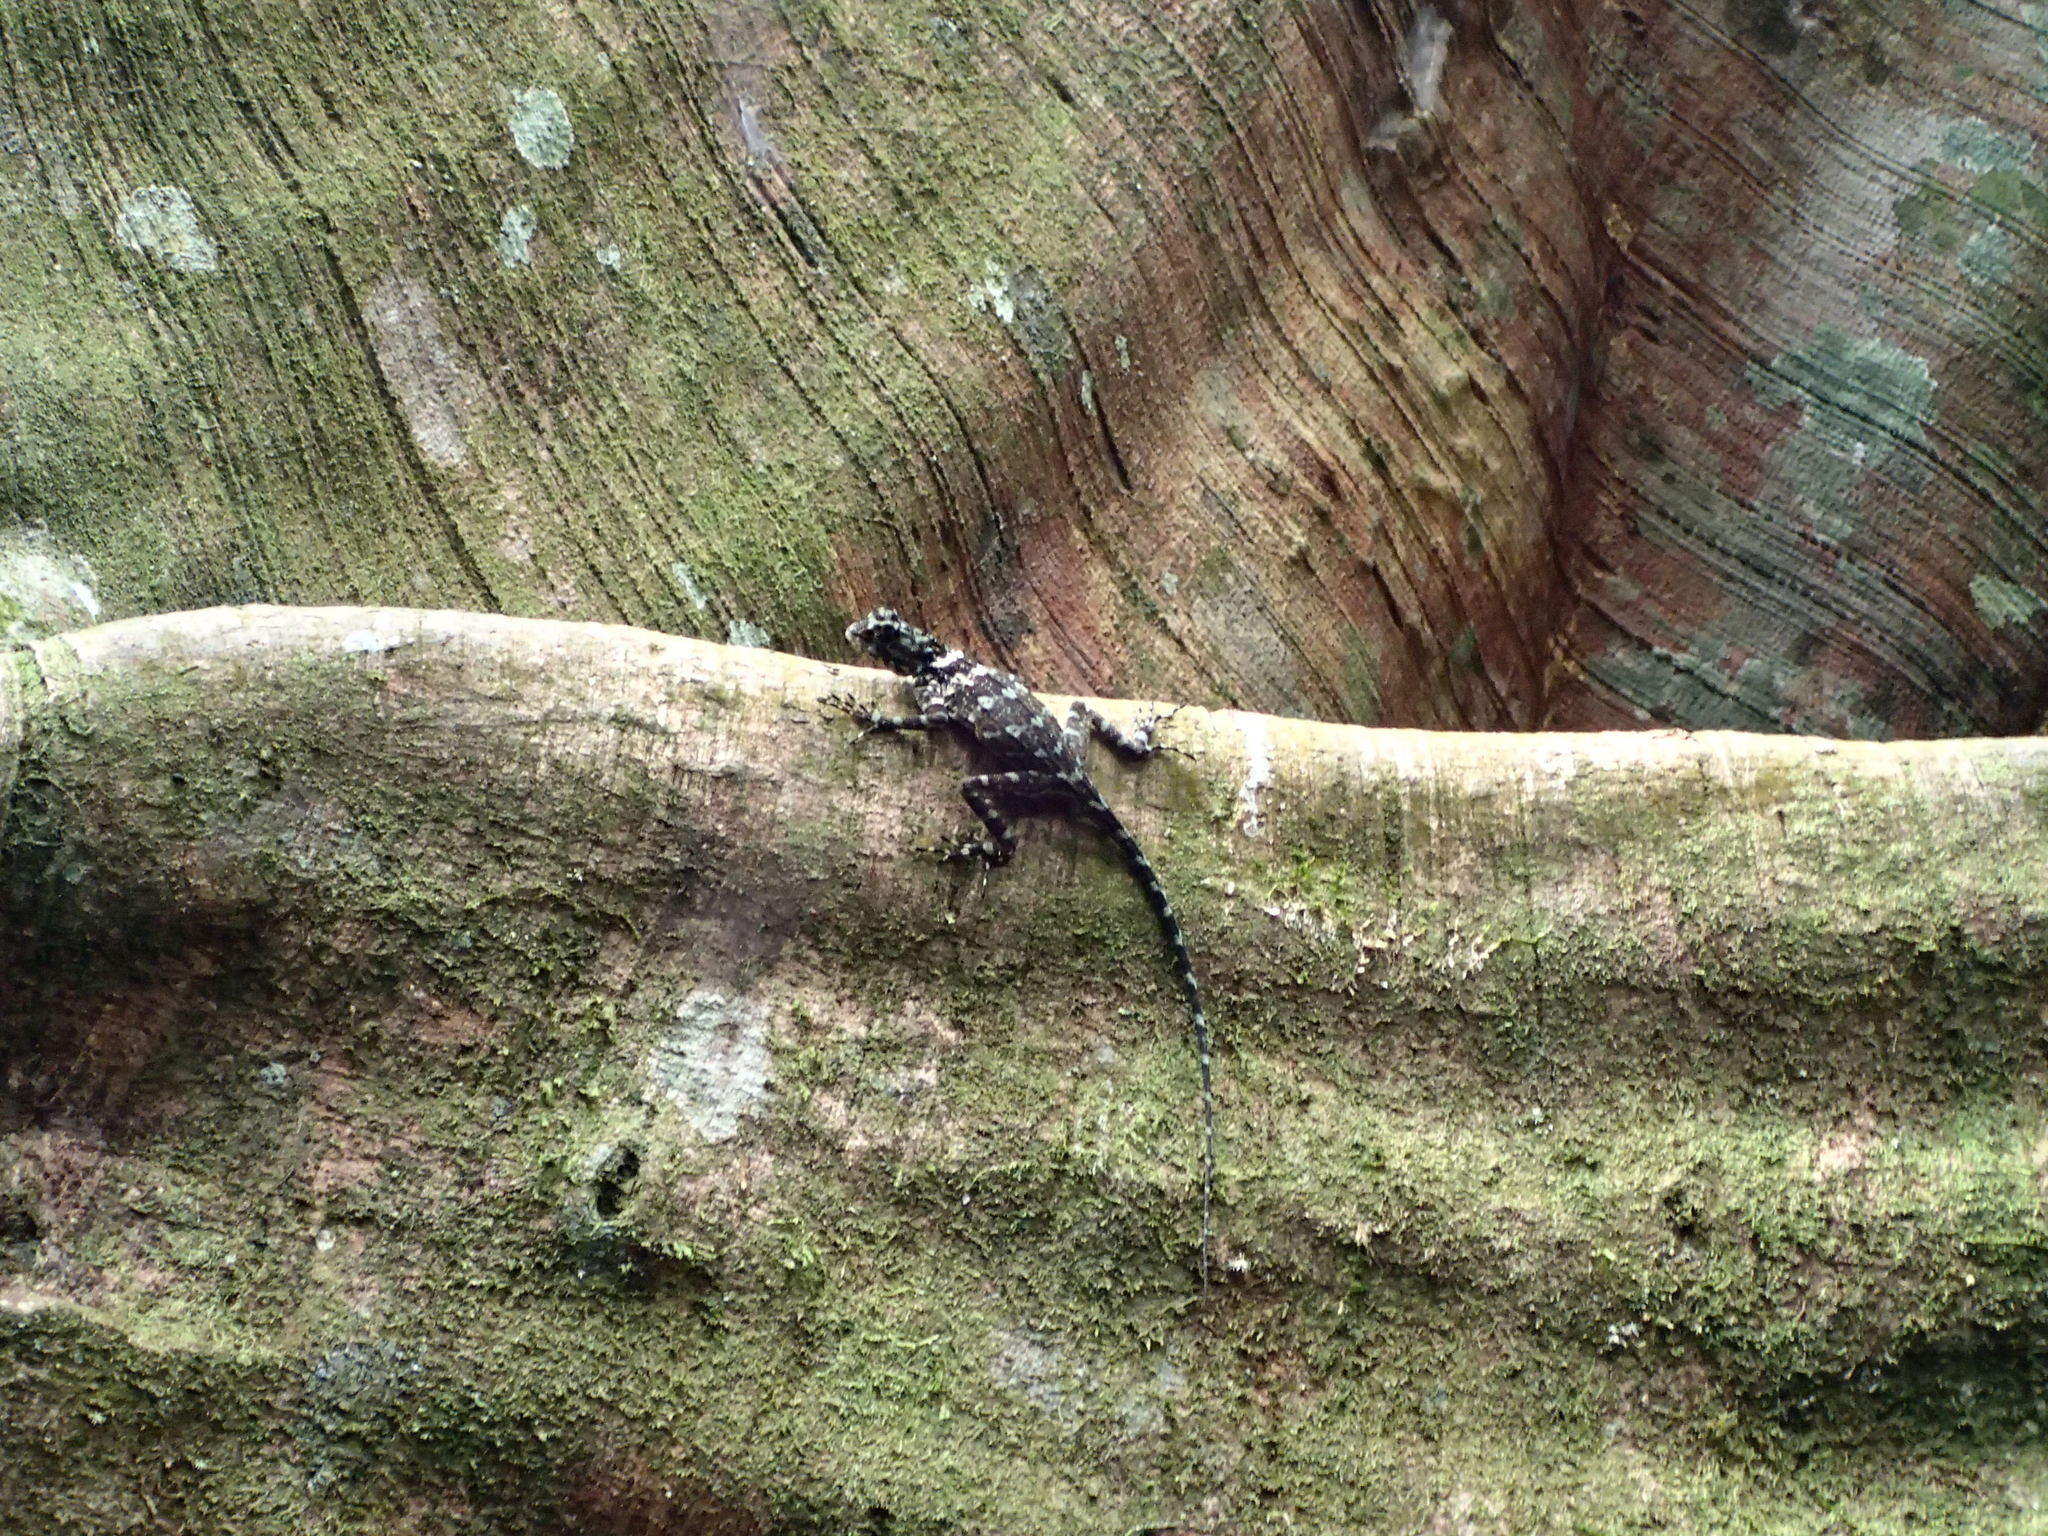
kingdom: Animalia
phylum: Chordata
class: Squamata
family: Tropiduridae
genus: Plica
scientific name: Plica plica
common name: Tree runner
